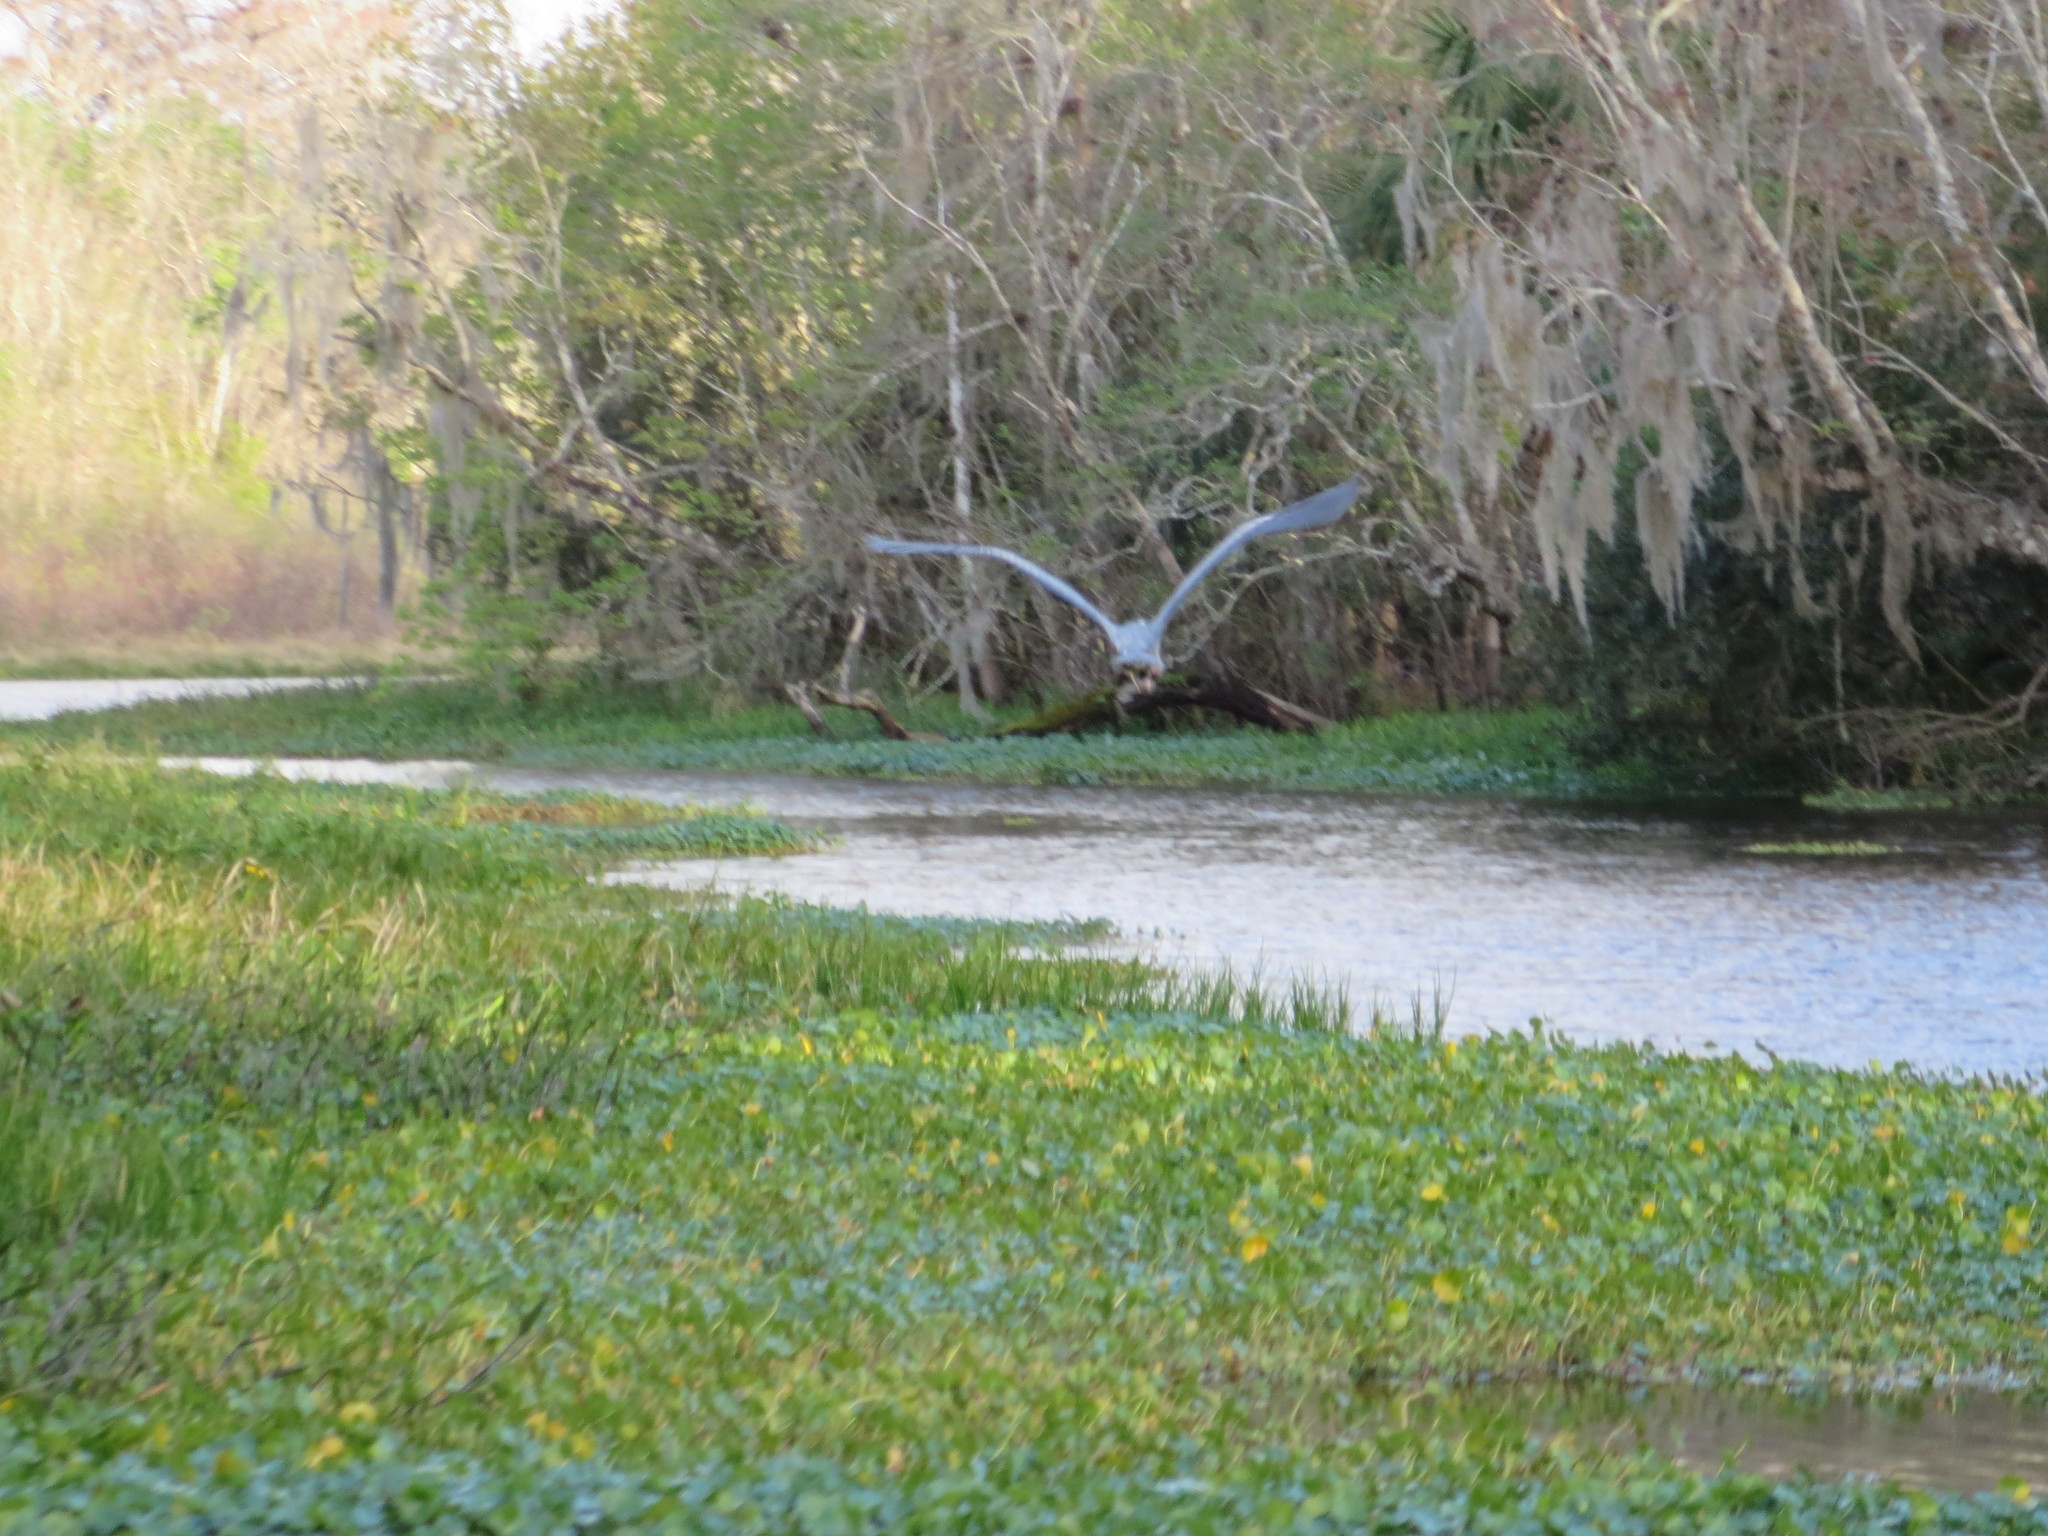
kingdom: Animalia
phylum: Chordata
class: Aves
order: Pelecaniformes
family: Ardeidae
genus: Ardea
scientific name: Ardea herodias
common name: Great blue heron
